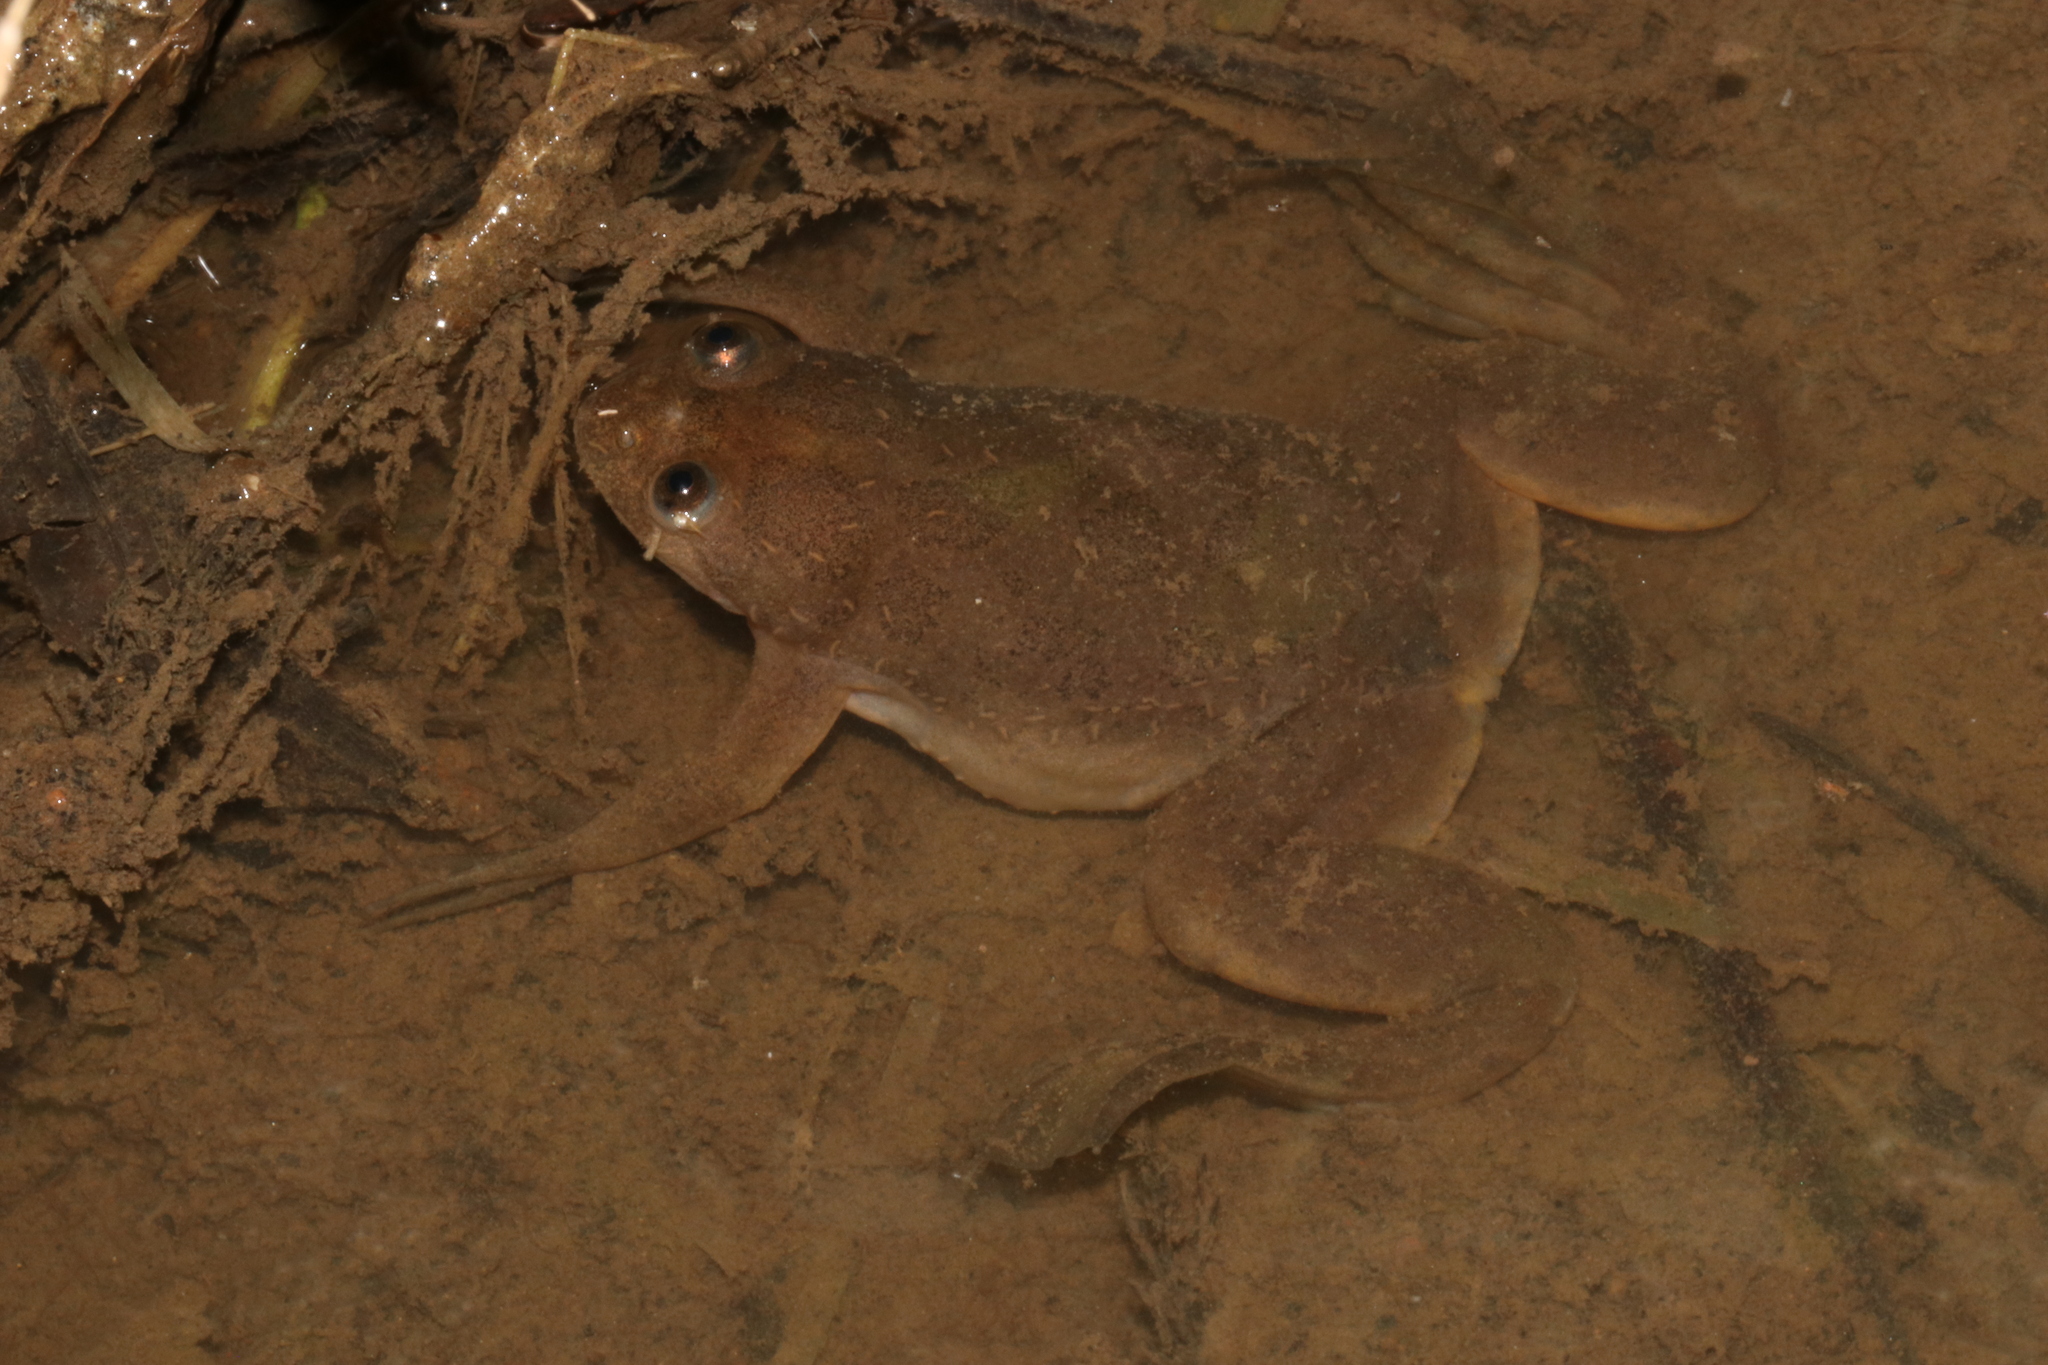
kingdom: Animalia
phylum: Chordata
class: Amphibia
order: Anura
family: Pipidae
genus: Xenopus
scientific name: Xenopus muelleri
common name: Muller's clawed frog
